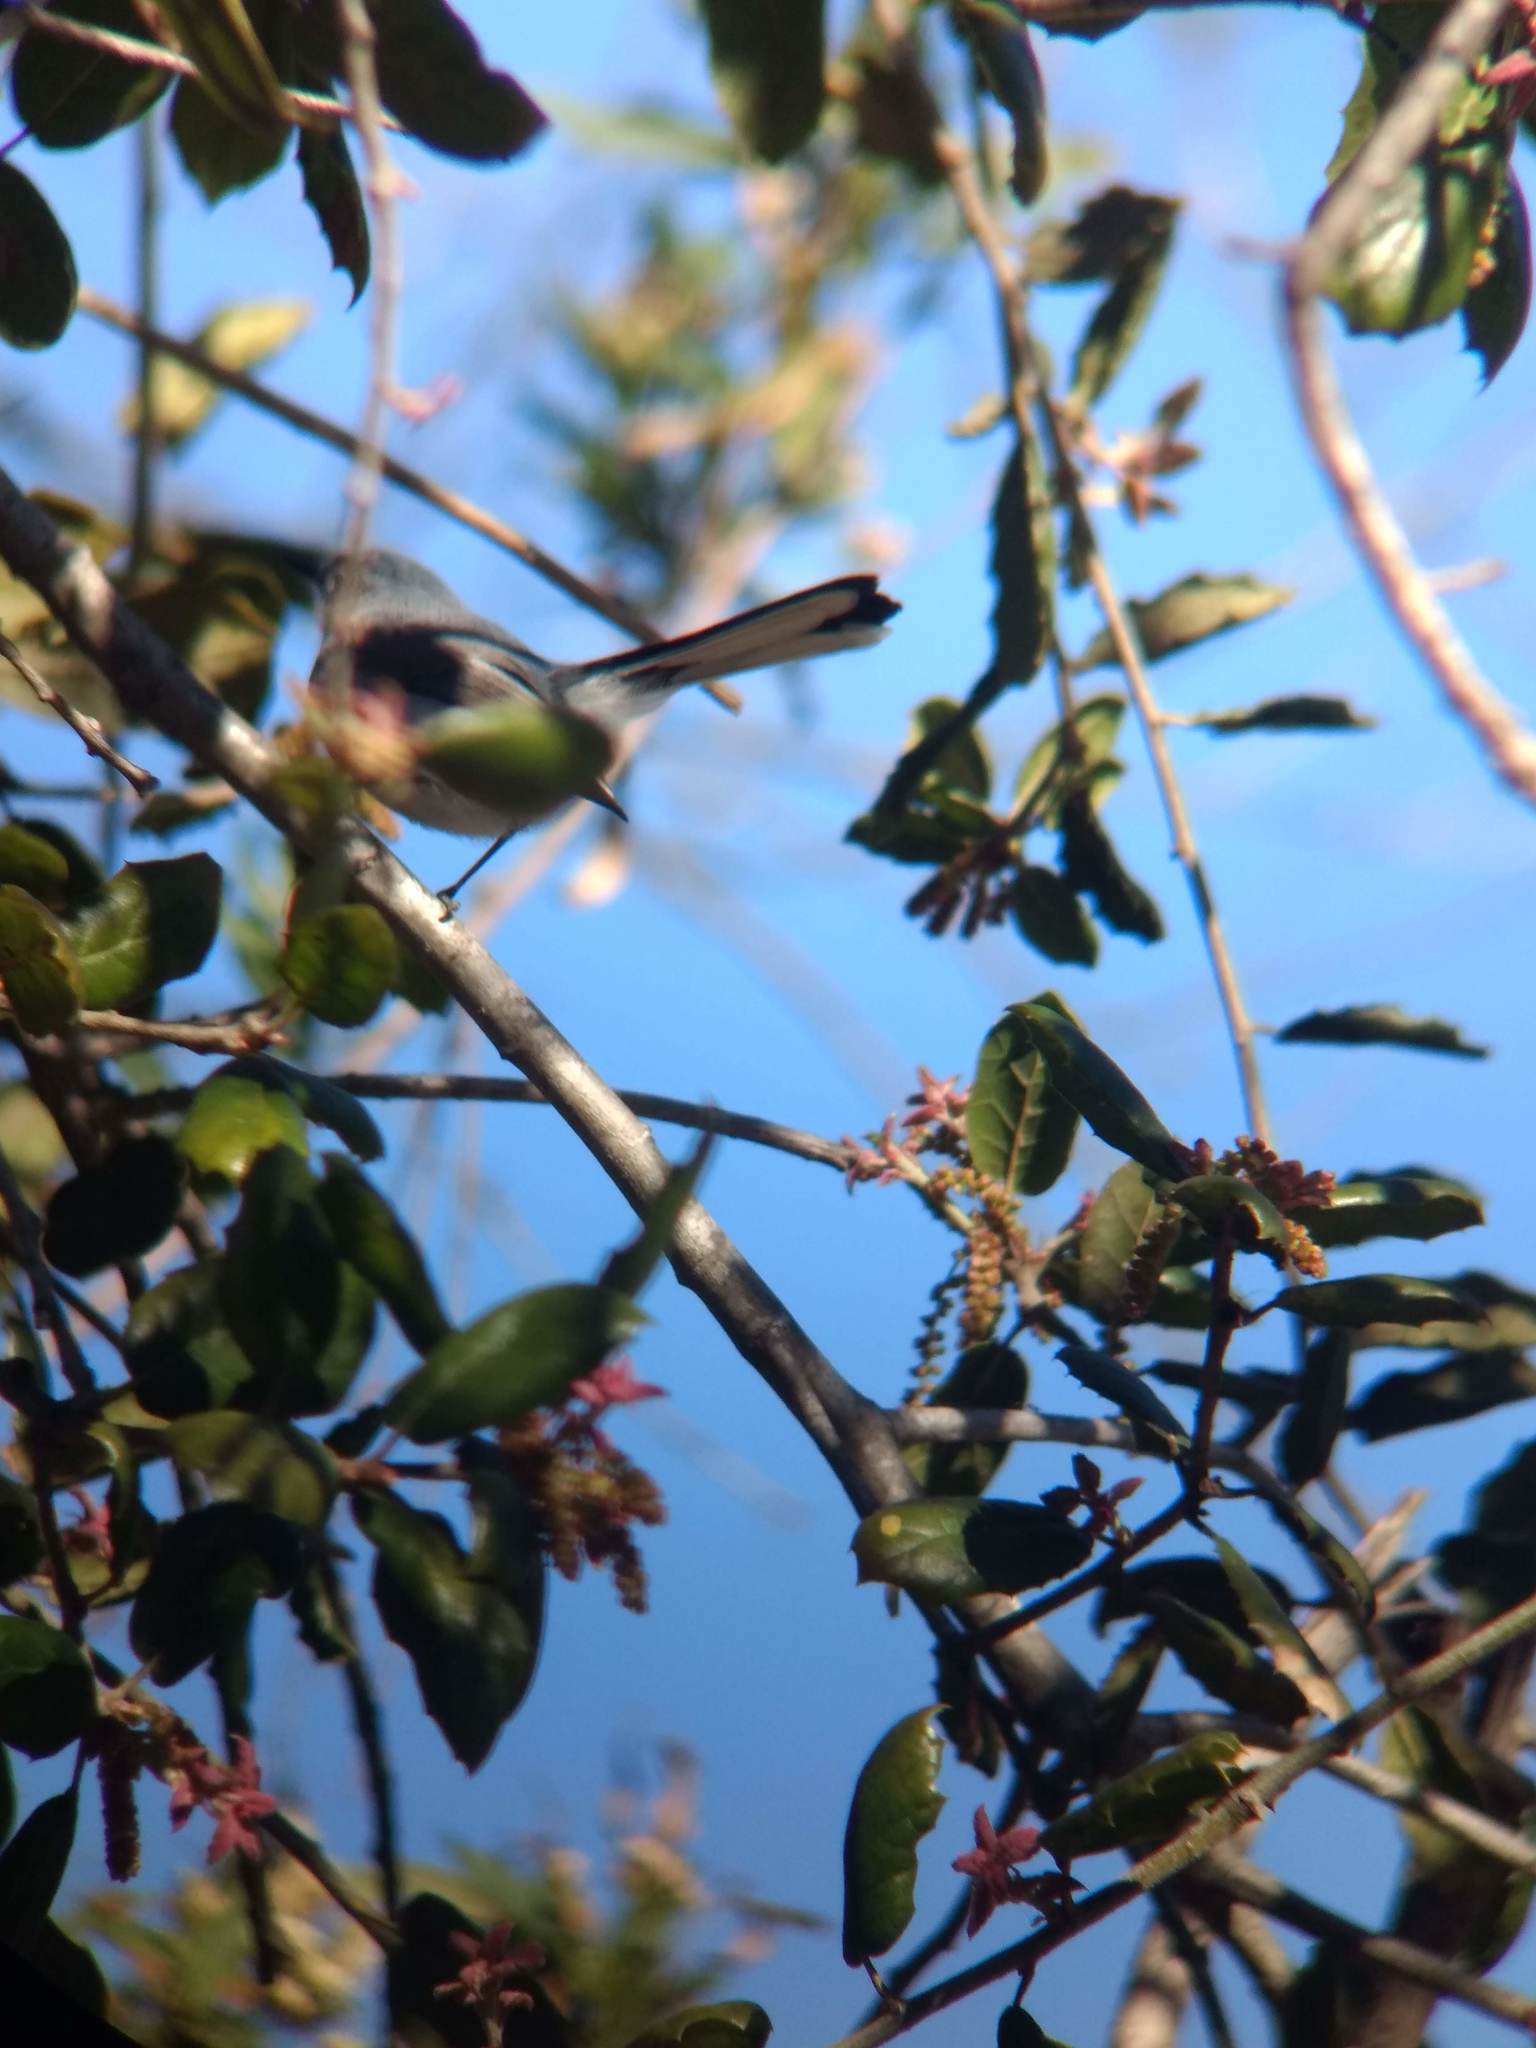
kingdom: Animalia
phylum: Chordata
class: Aves
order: Passeriformes
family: Polioptilidae
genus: Polioptila
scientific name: Polioptila caerulea
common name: Blue-gray gnatcatcher
